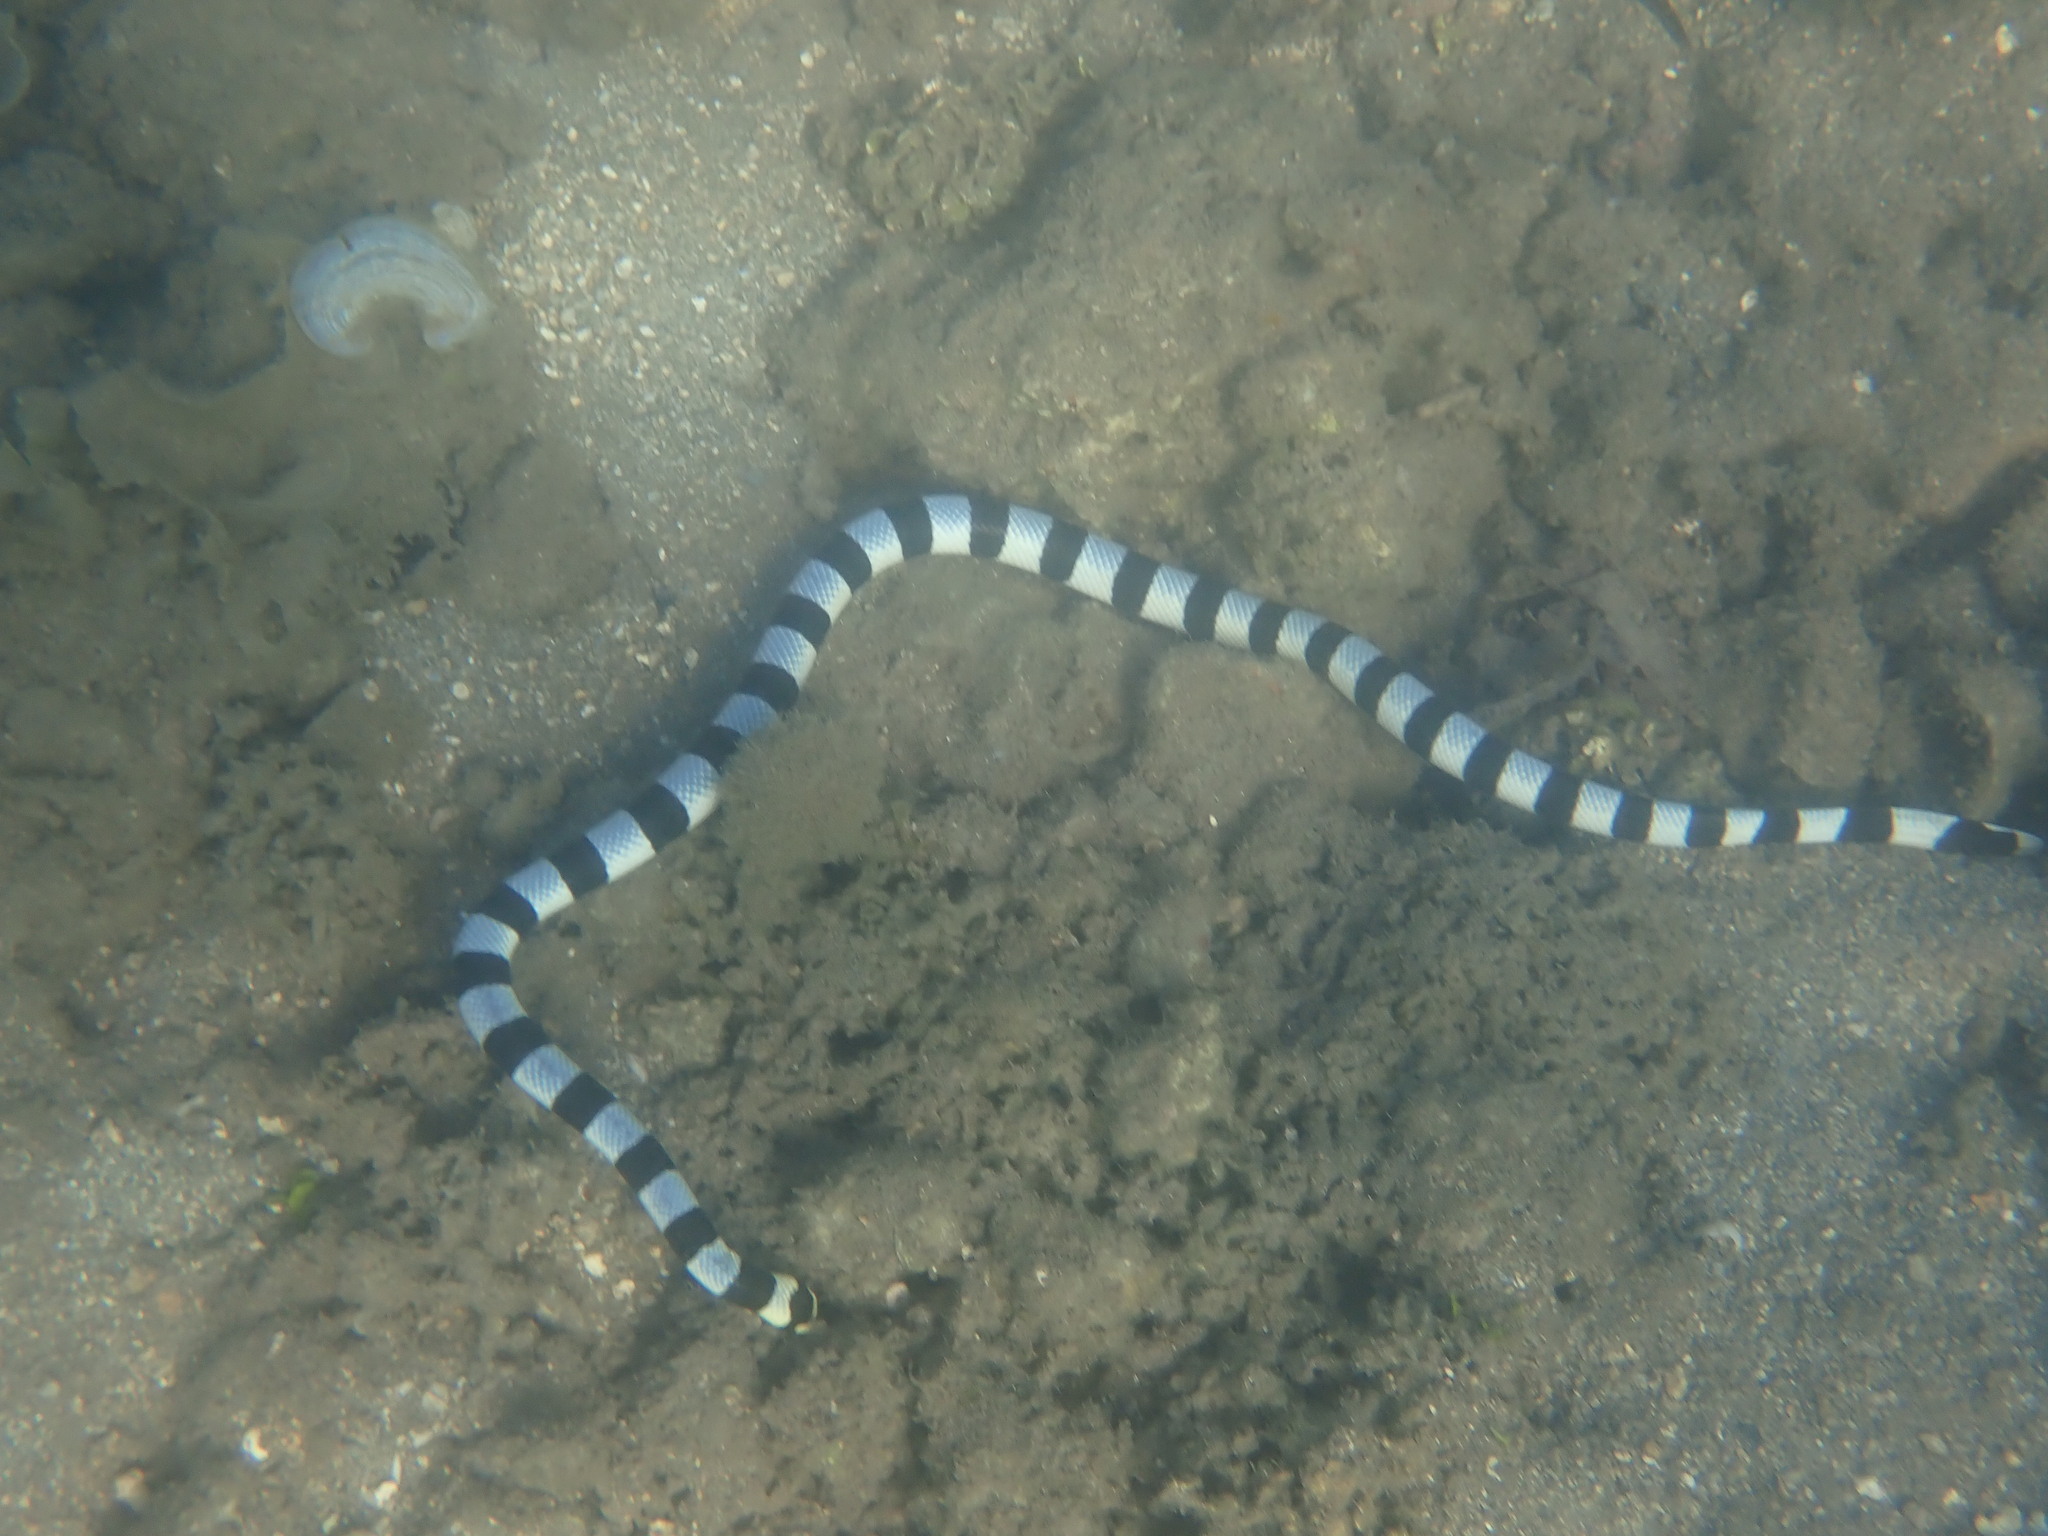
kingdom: Animalia
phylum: Chordata
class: Squamata
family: Elapidae
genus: Laticauda
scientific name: Laticauda colubrina
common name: Yellow-lipped sea krait
